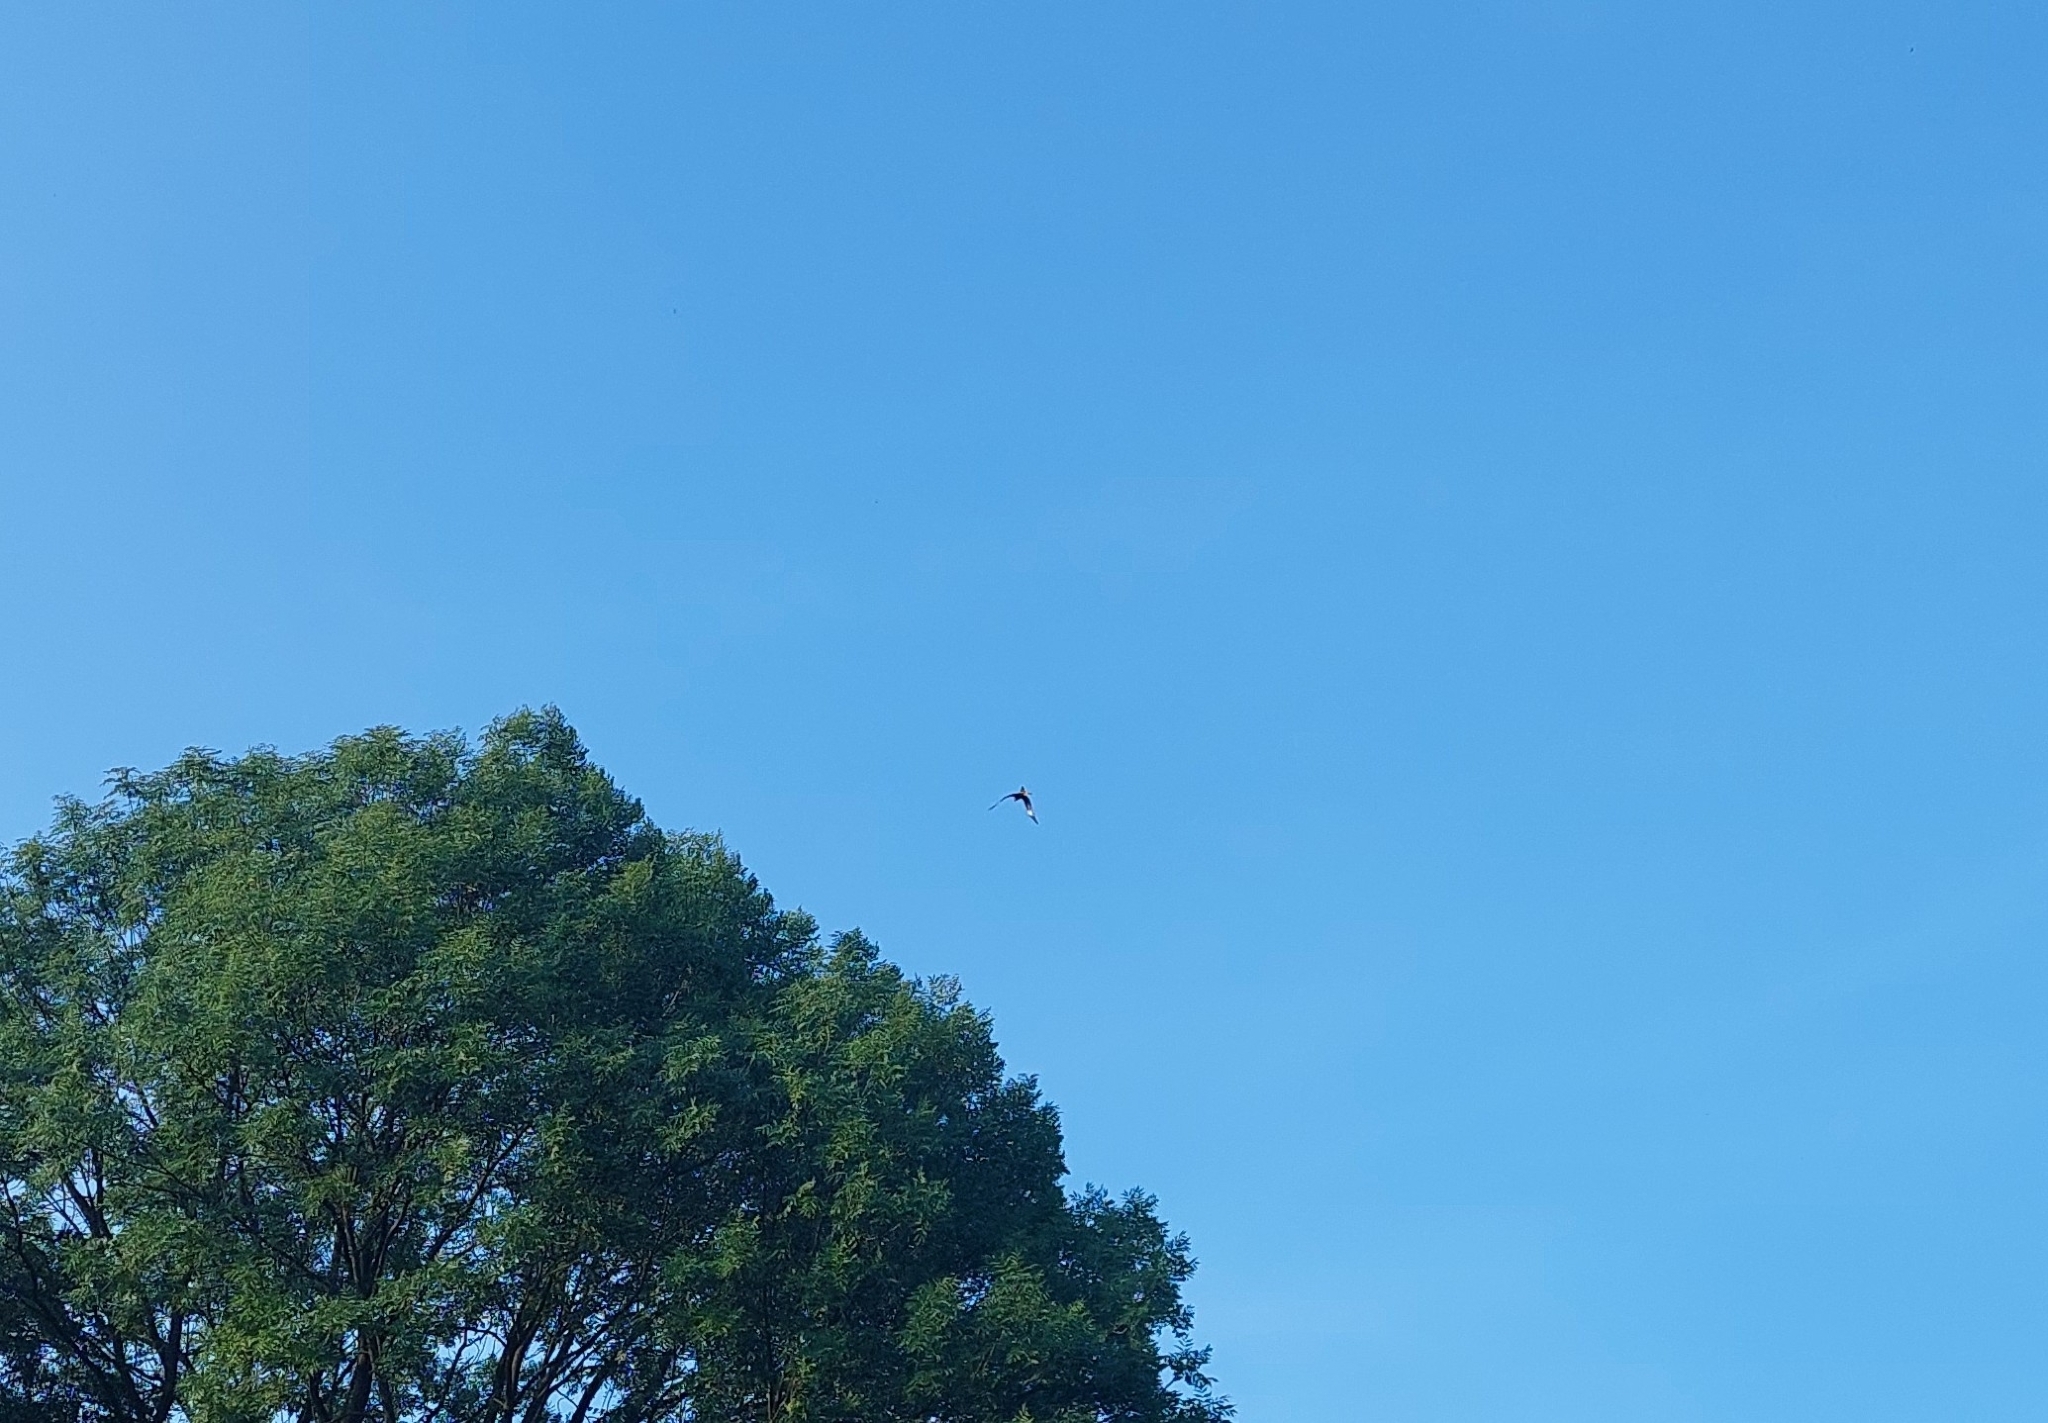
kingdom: Animalia
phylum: Chordata
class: Aves
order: Accipitriformes
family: Accipitridae
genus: Milvus
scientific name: Milvus milvus
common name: Red kite
